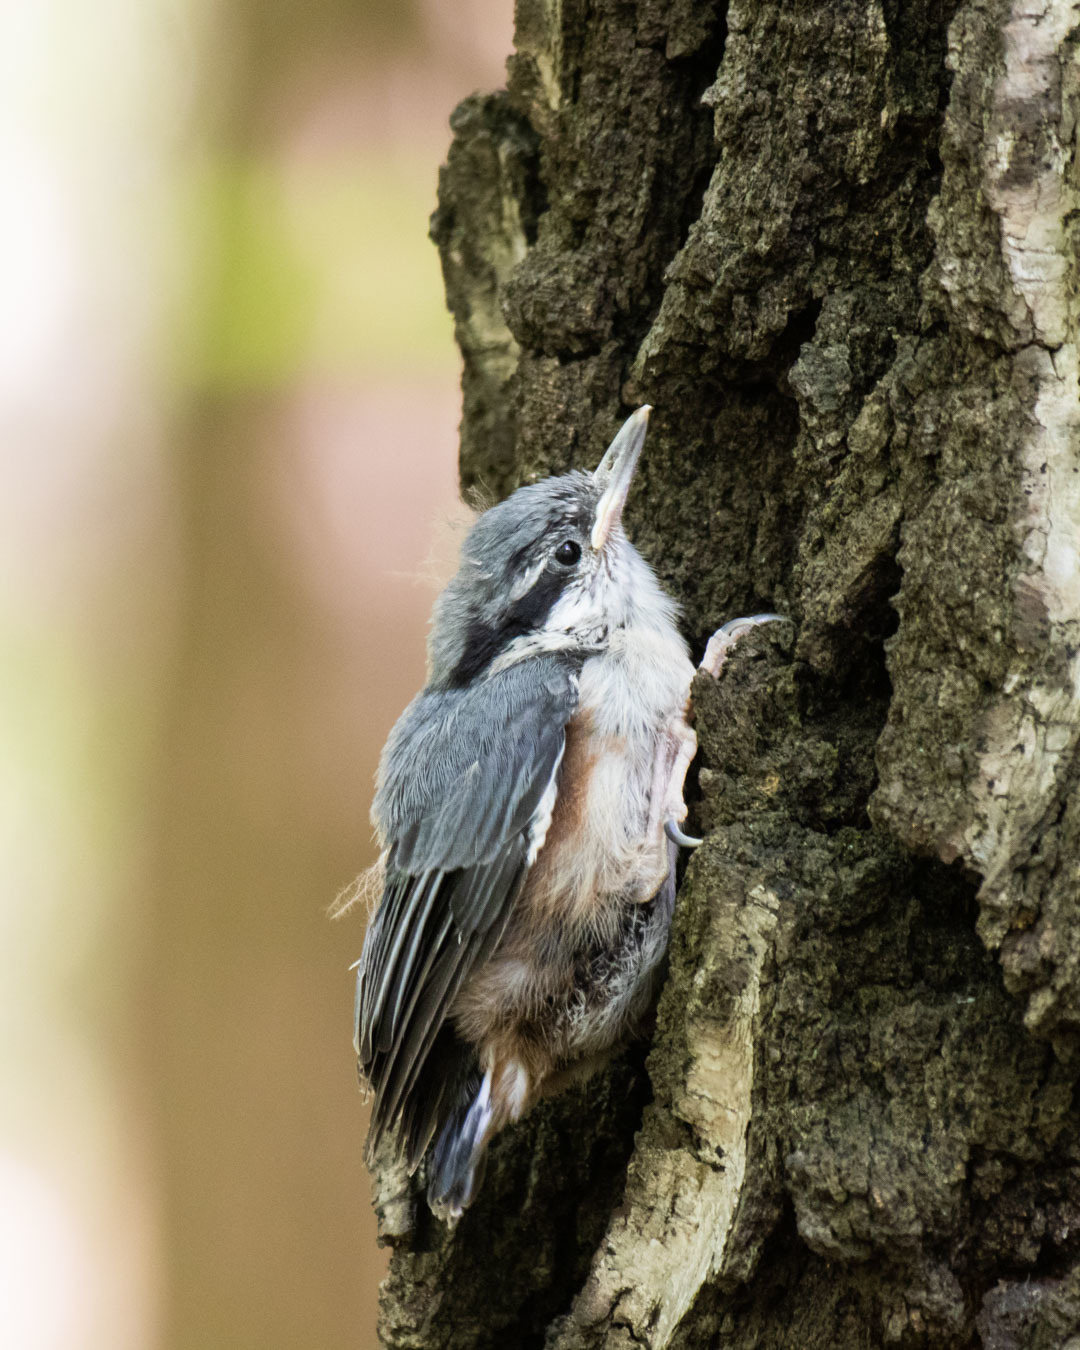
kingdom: Animalia
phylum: Chordata
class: Aves
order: Passeriformes
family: Sittidae
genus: Sitta
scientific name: Sitta europaea
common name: Eurasian nuthatch
